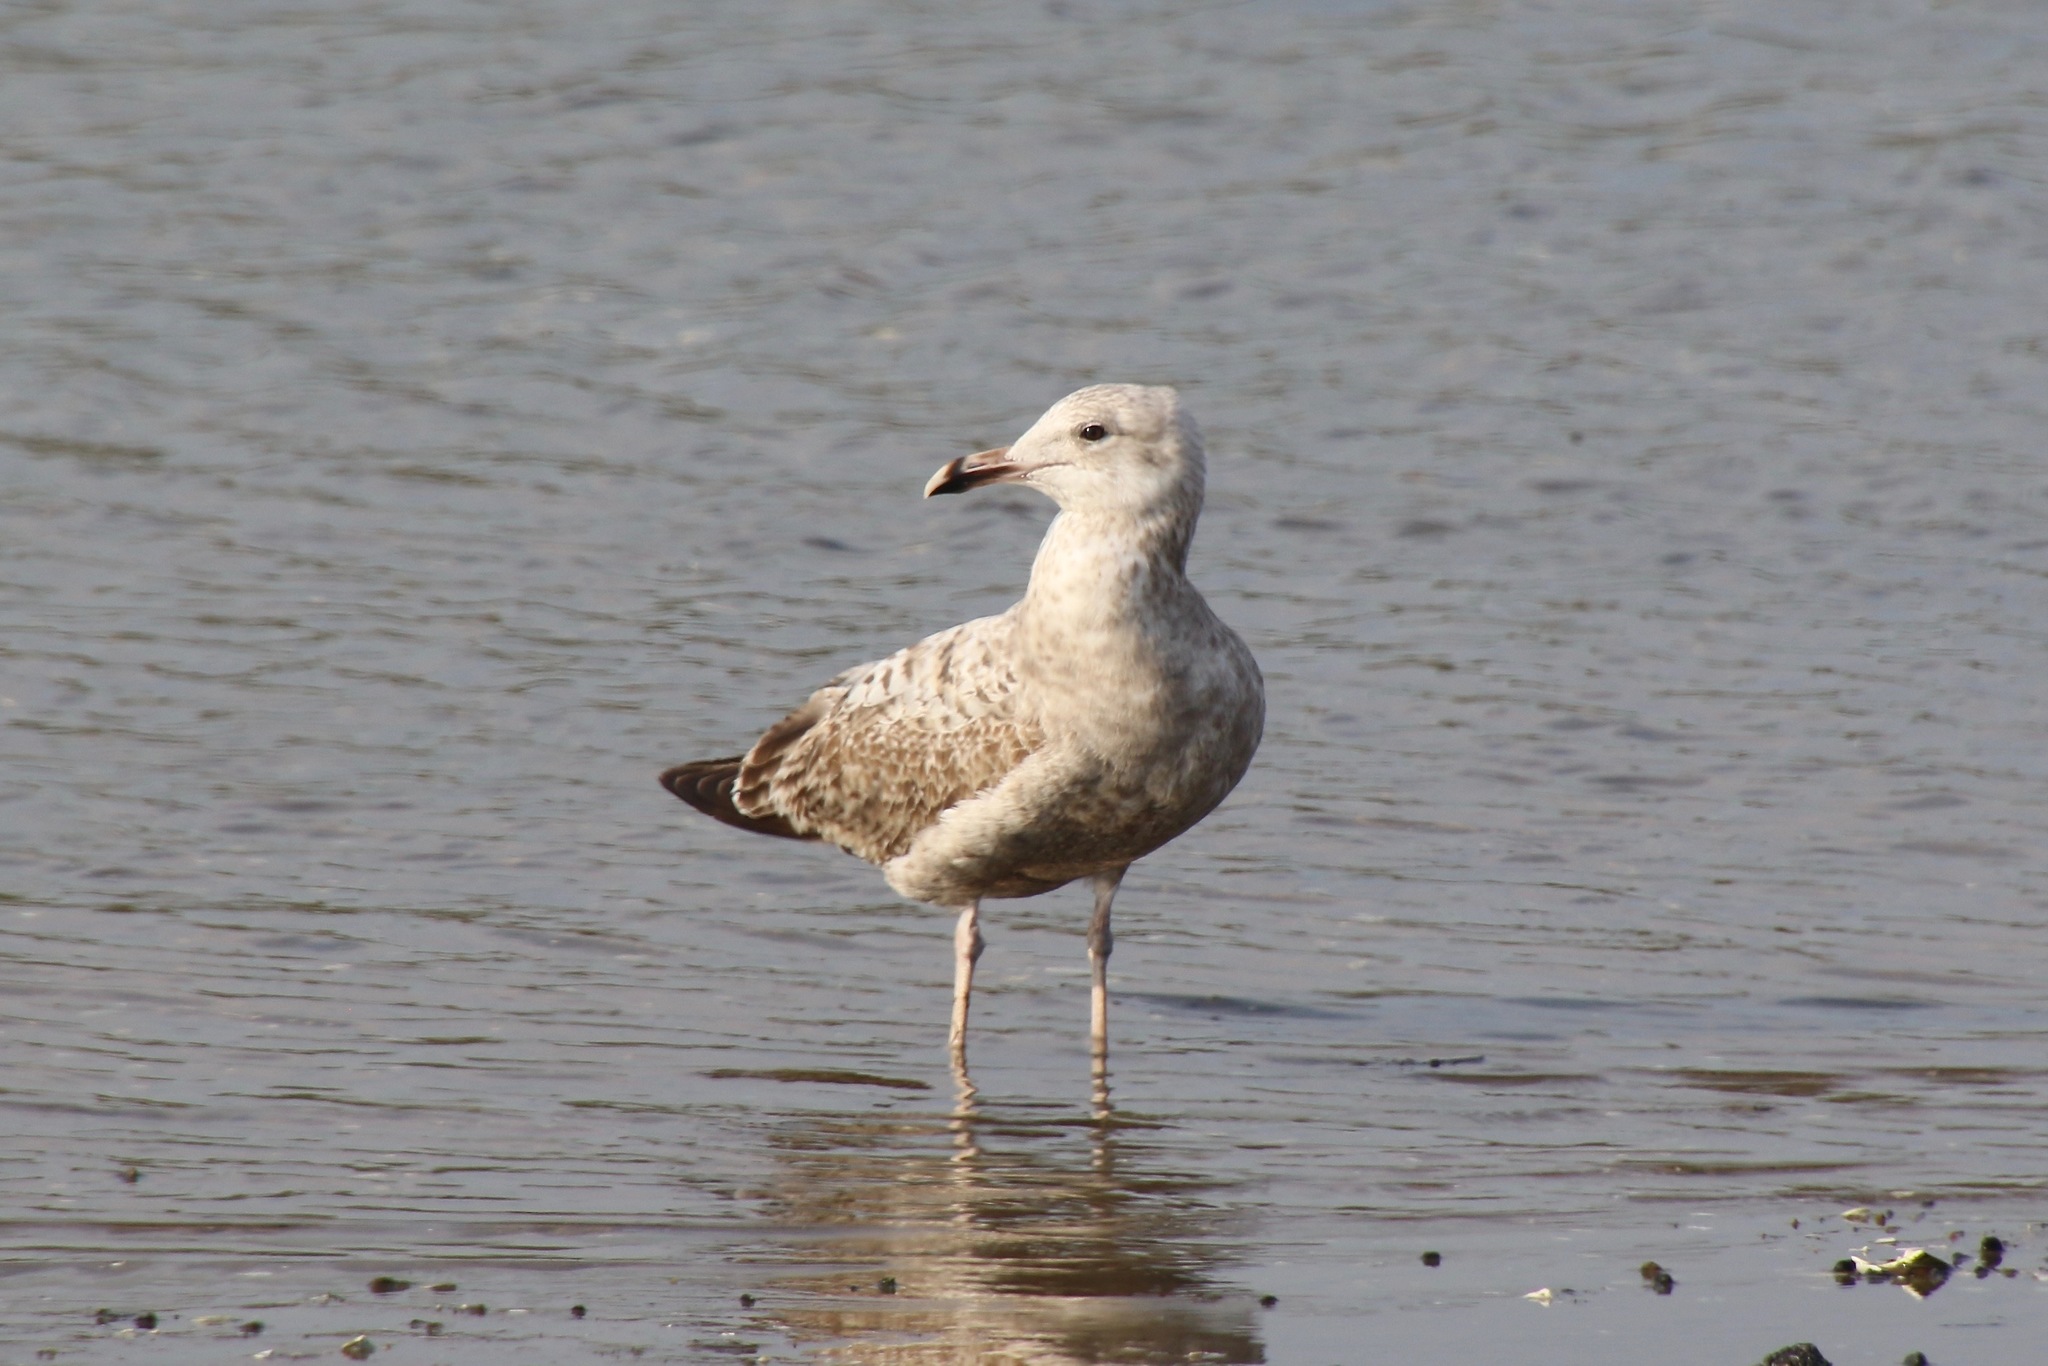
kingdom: Animalia
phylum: Chordata
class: Aves
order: Charadriiformes
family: Laridae
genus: Larus
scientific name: Larus argentatus
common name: Herring gull
